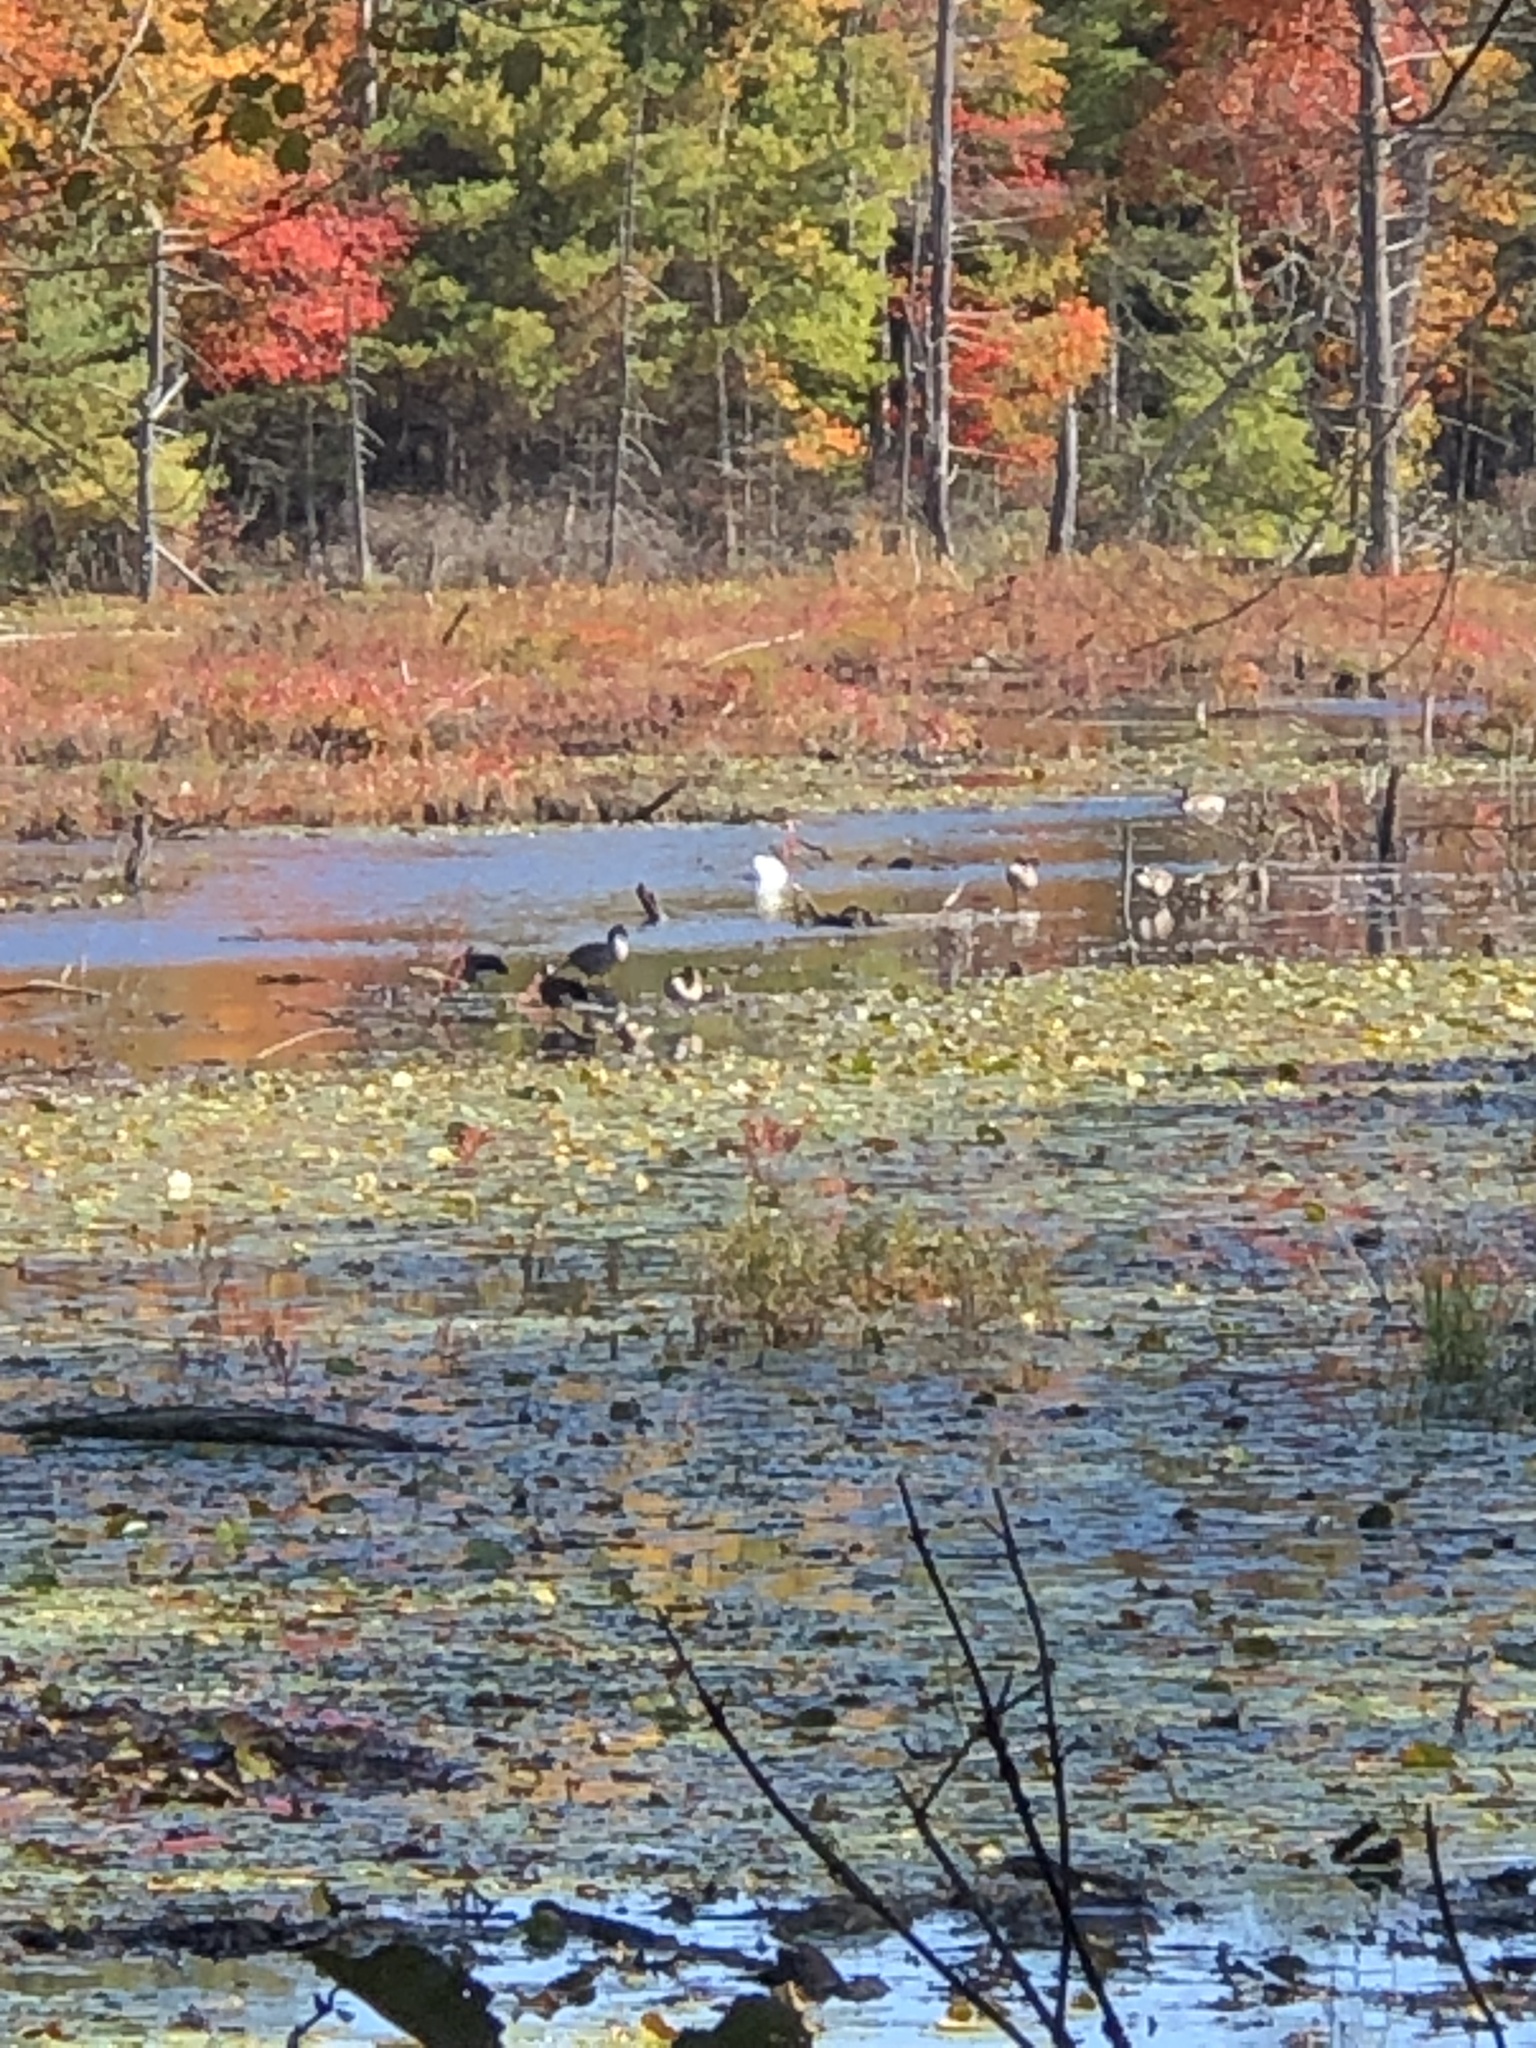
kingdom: Animalia
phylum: Chordata
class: Aves
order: Anseriformes
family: Anatidae
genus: Branta
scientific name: Branta canadensis
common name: Canada goose
